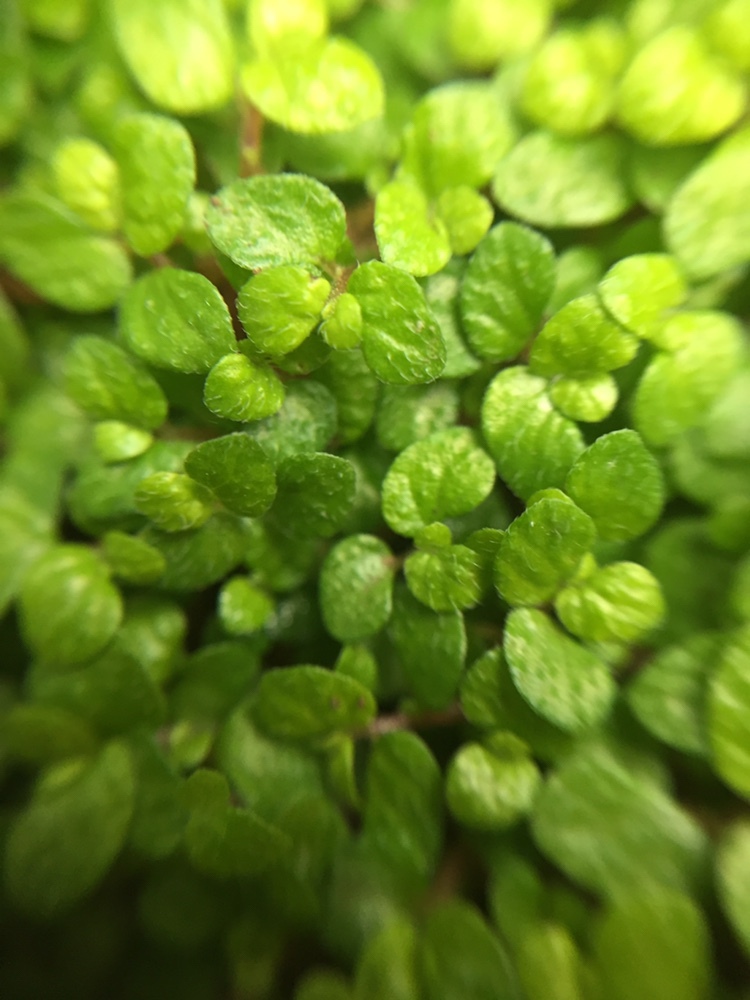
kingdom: Plantae
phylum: Tracheophyta
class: Magnoliopsida
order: Rosales
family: Urticaceae
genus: Soleirolia
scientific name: Soleirolia soleirolii
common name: Mind-your-own-business
